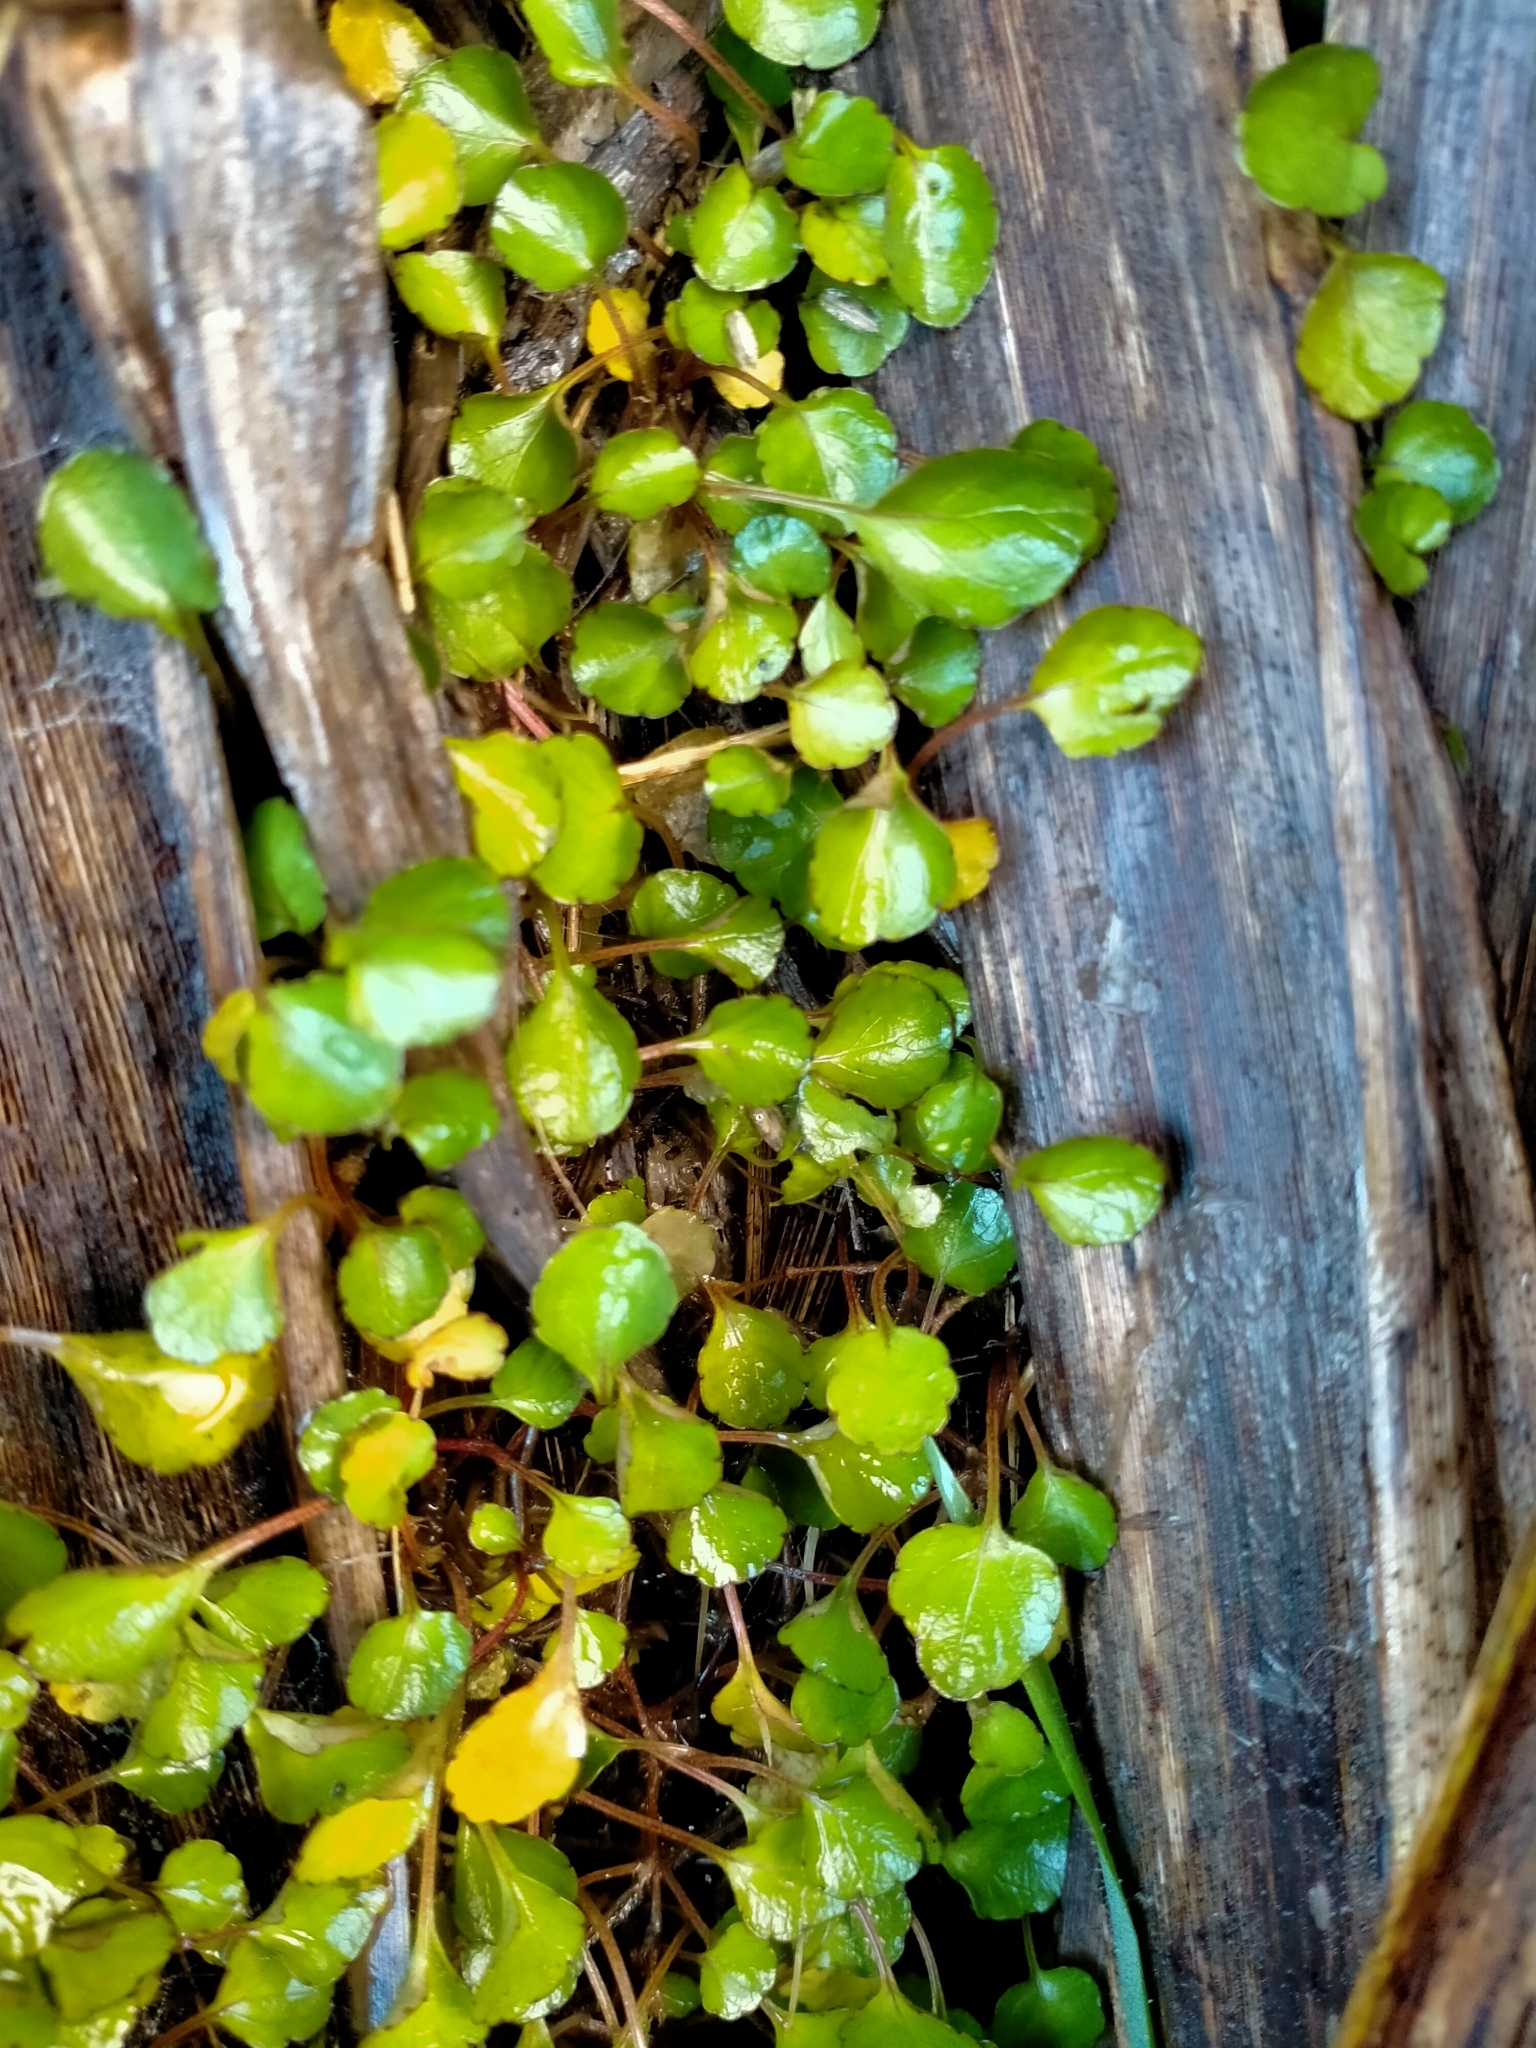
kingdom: Plantae
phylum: Tracheophyta
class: Magnoliopsida
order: Malpighiales
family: Violaceae
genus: Viola
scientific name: Viola filicaulis
